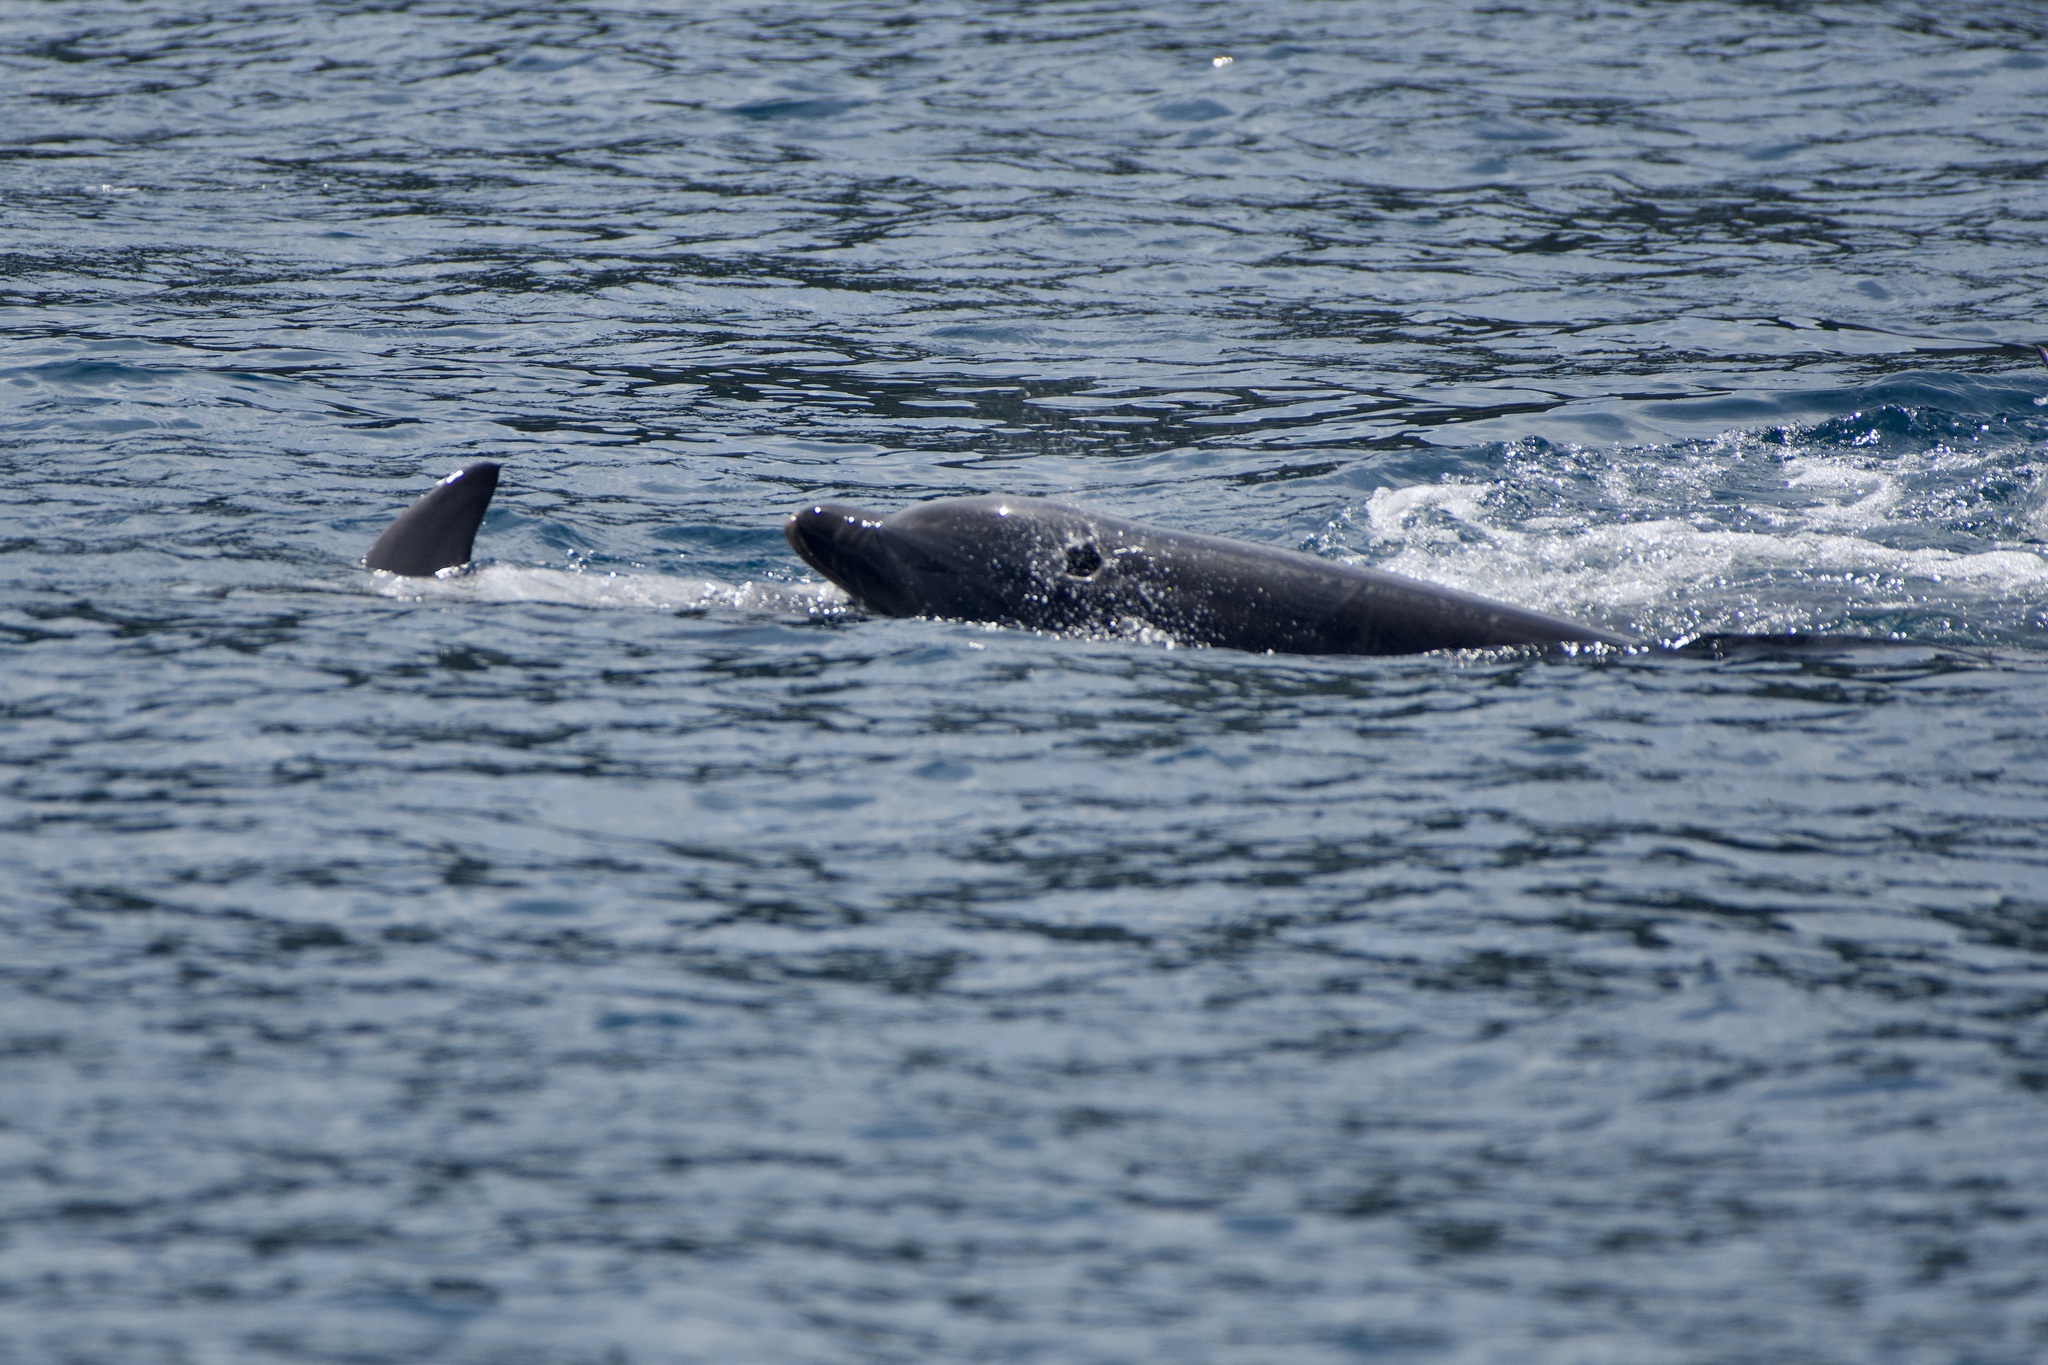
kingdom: Animalia
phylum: Chordata
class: Mammalia
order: Cetacea
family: Delphinidae
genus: Tursiops
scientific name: Tursiops truncatus
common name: Bottlenose dolphin
